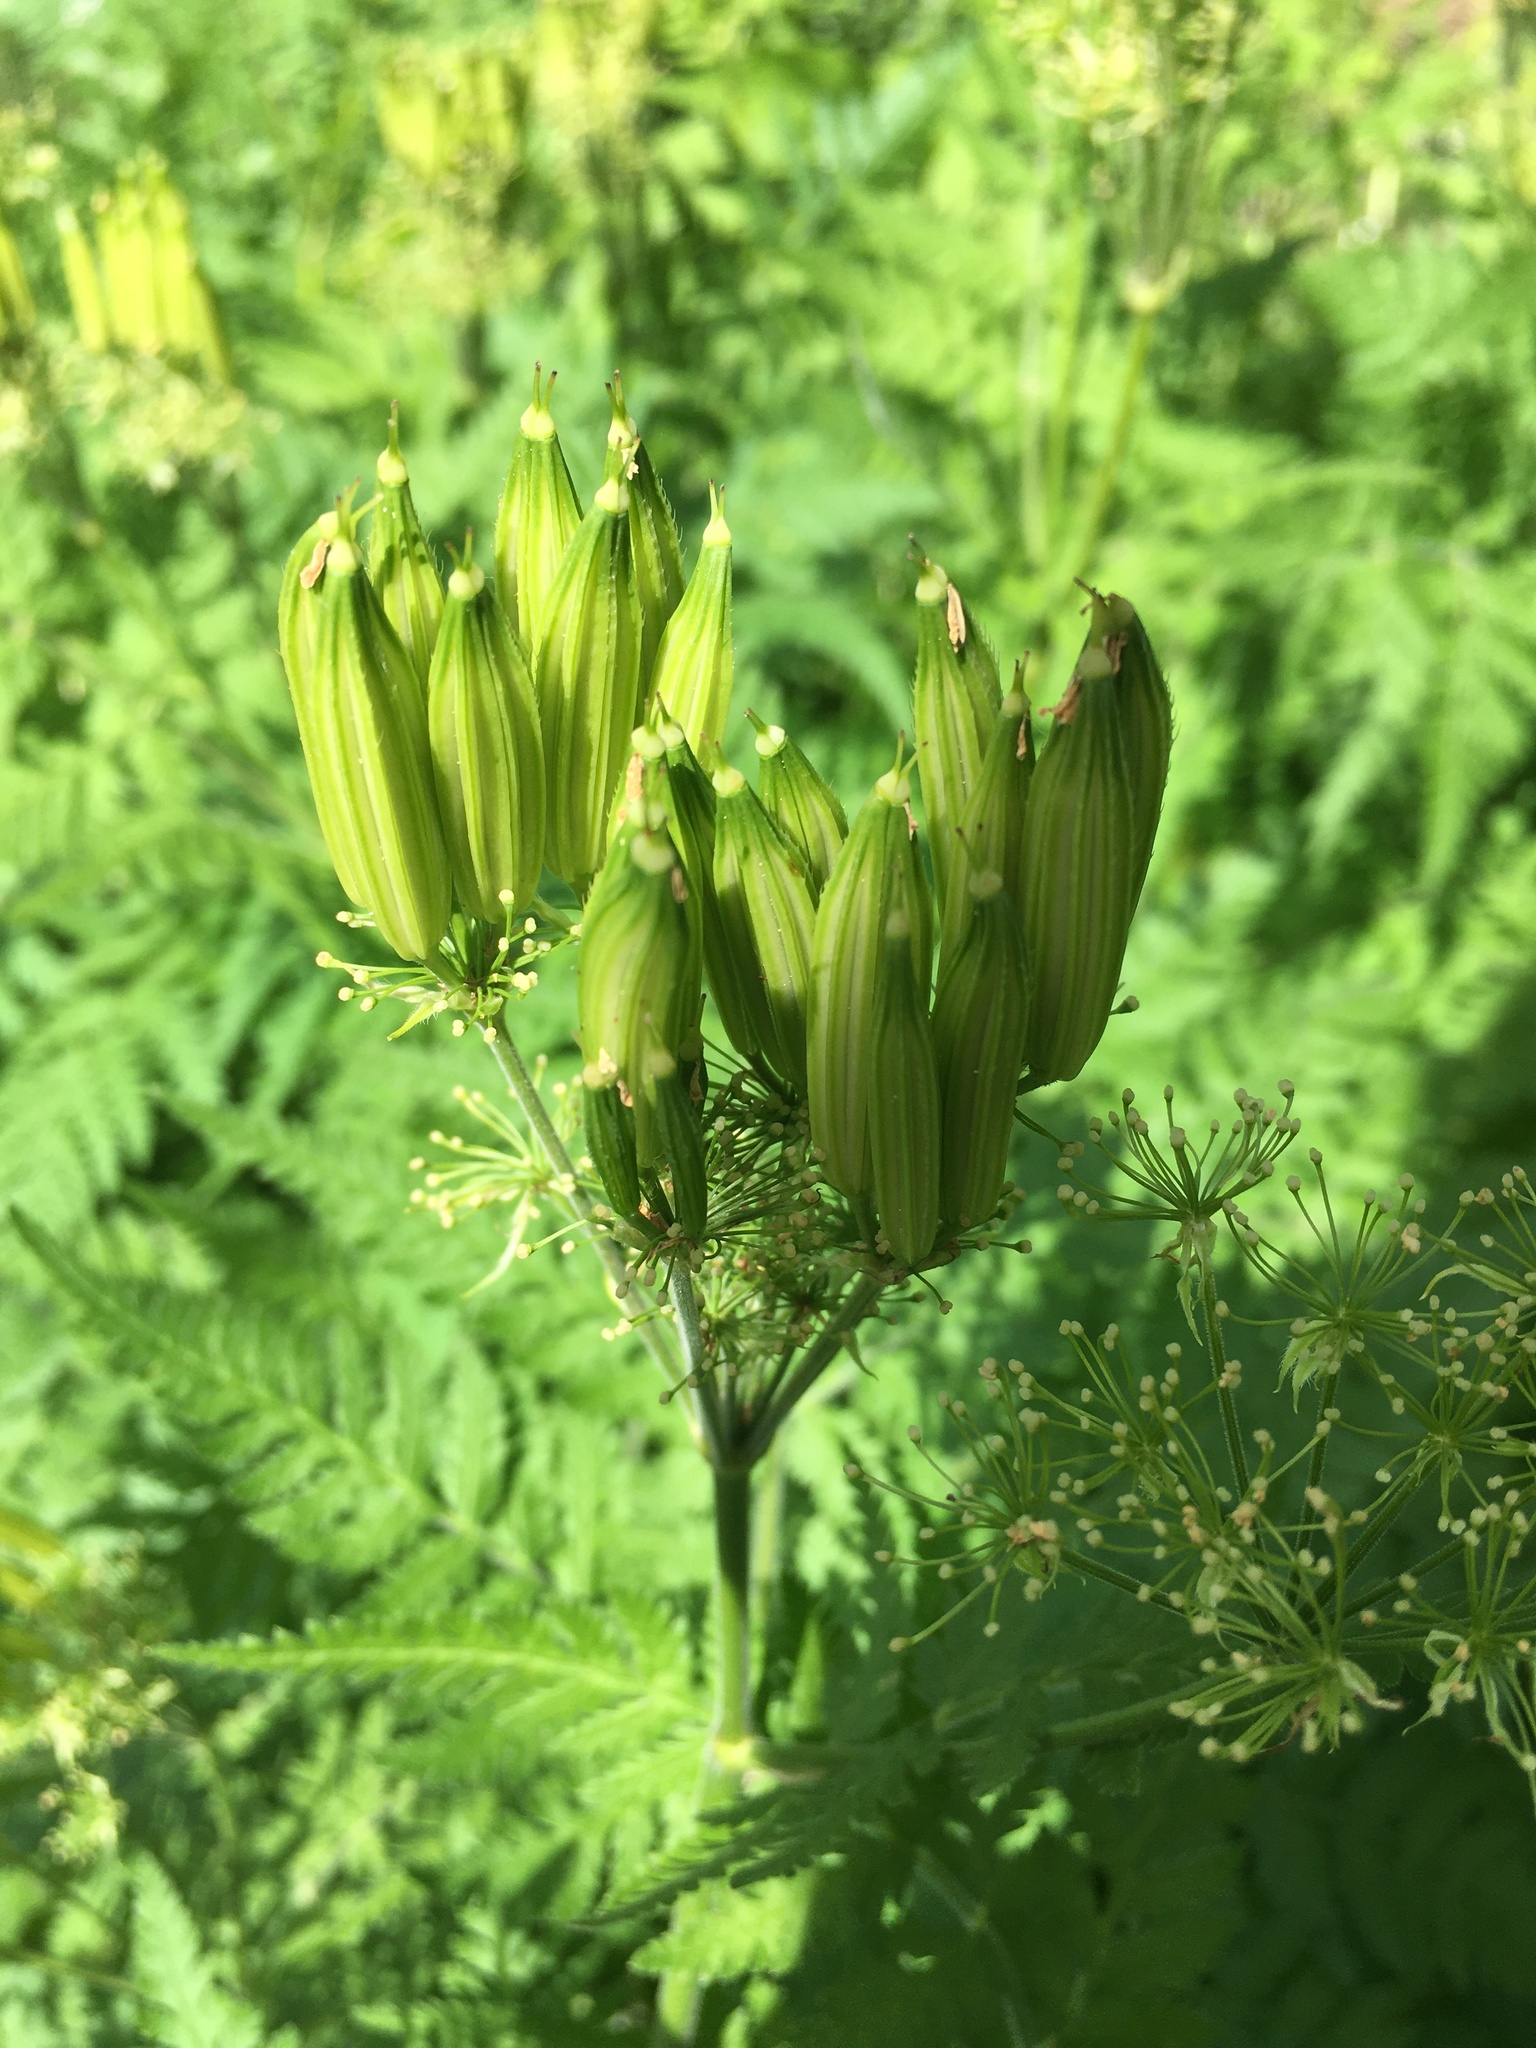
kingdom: Plantae
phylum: Tracheophyta
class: Magnoliopsida
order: Apiales
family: Apiaceae
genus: Myrrhis
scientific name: Myrrhis odorata
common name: Sweet cicely
